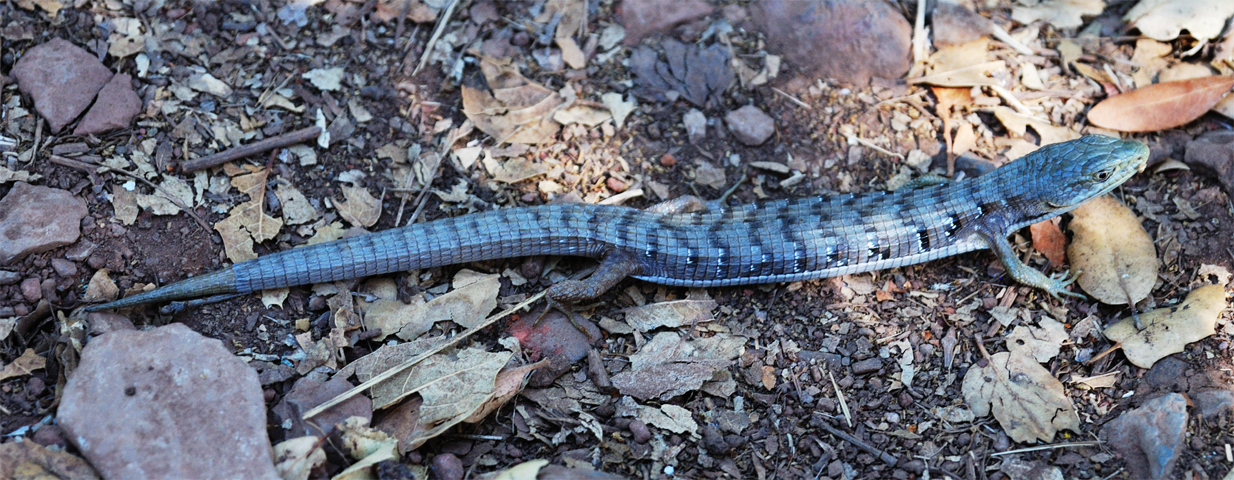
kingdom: Animalia
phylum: Chordata
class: Squamata
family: Anguidae
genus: Elgaria
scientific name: Elgaria multicarinata
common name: Southern alligator lizard
